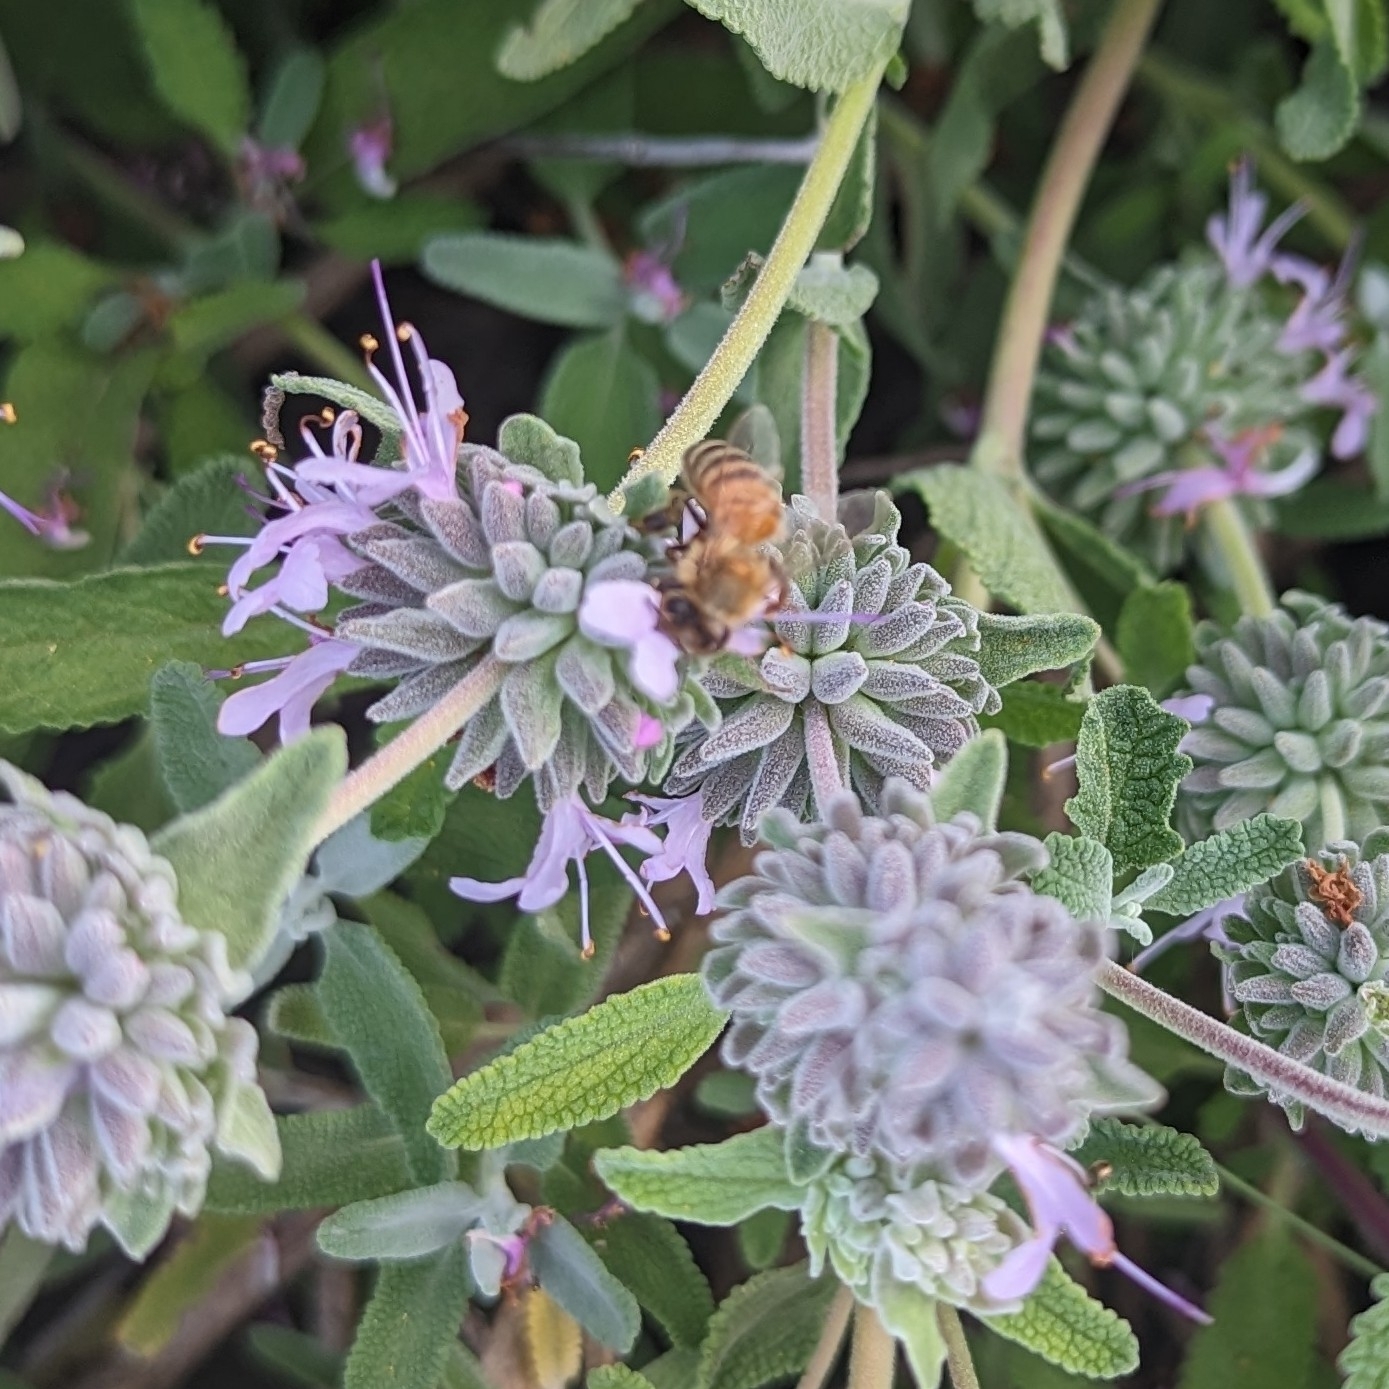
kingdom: Animalia
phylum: Arthropoda
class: Insecta
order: Hymenoptera
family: Apidae
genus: Apis
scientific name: Apis mellifera
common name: Honey bee
